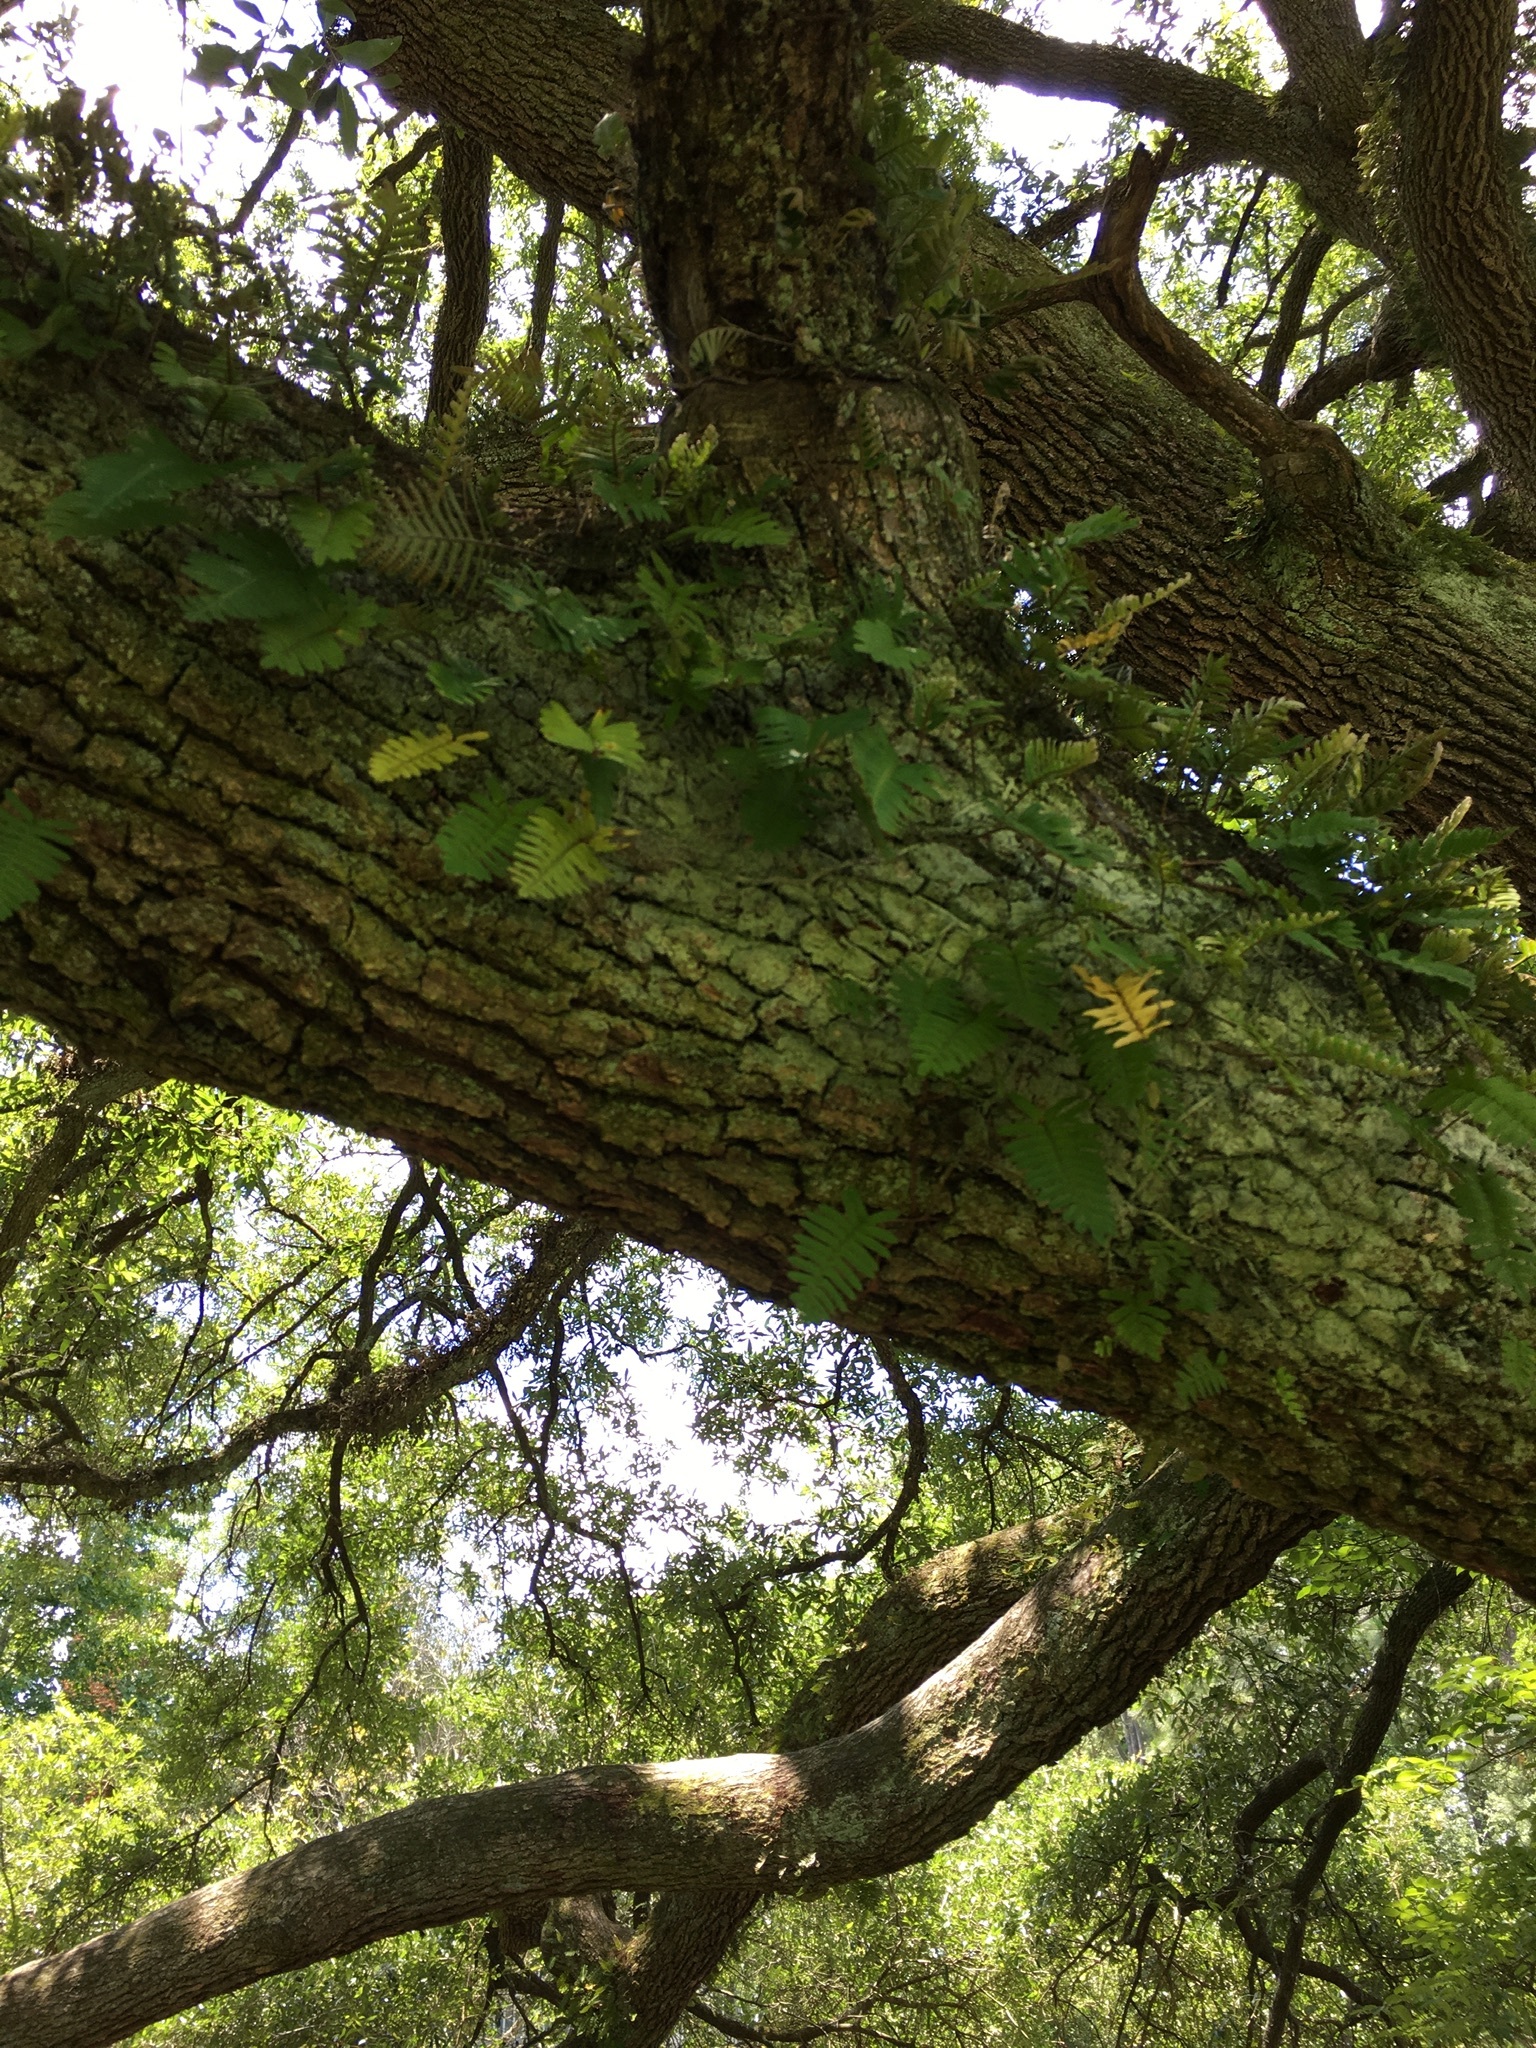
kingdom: Plantae
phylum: Tracheophyta
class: Polypodiopsida
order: Polypodiales
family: Polypodiaceae
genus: Pleopeltis
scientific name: Pleopeltis michauxiana
